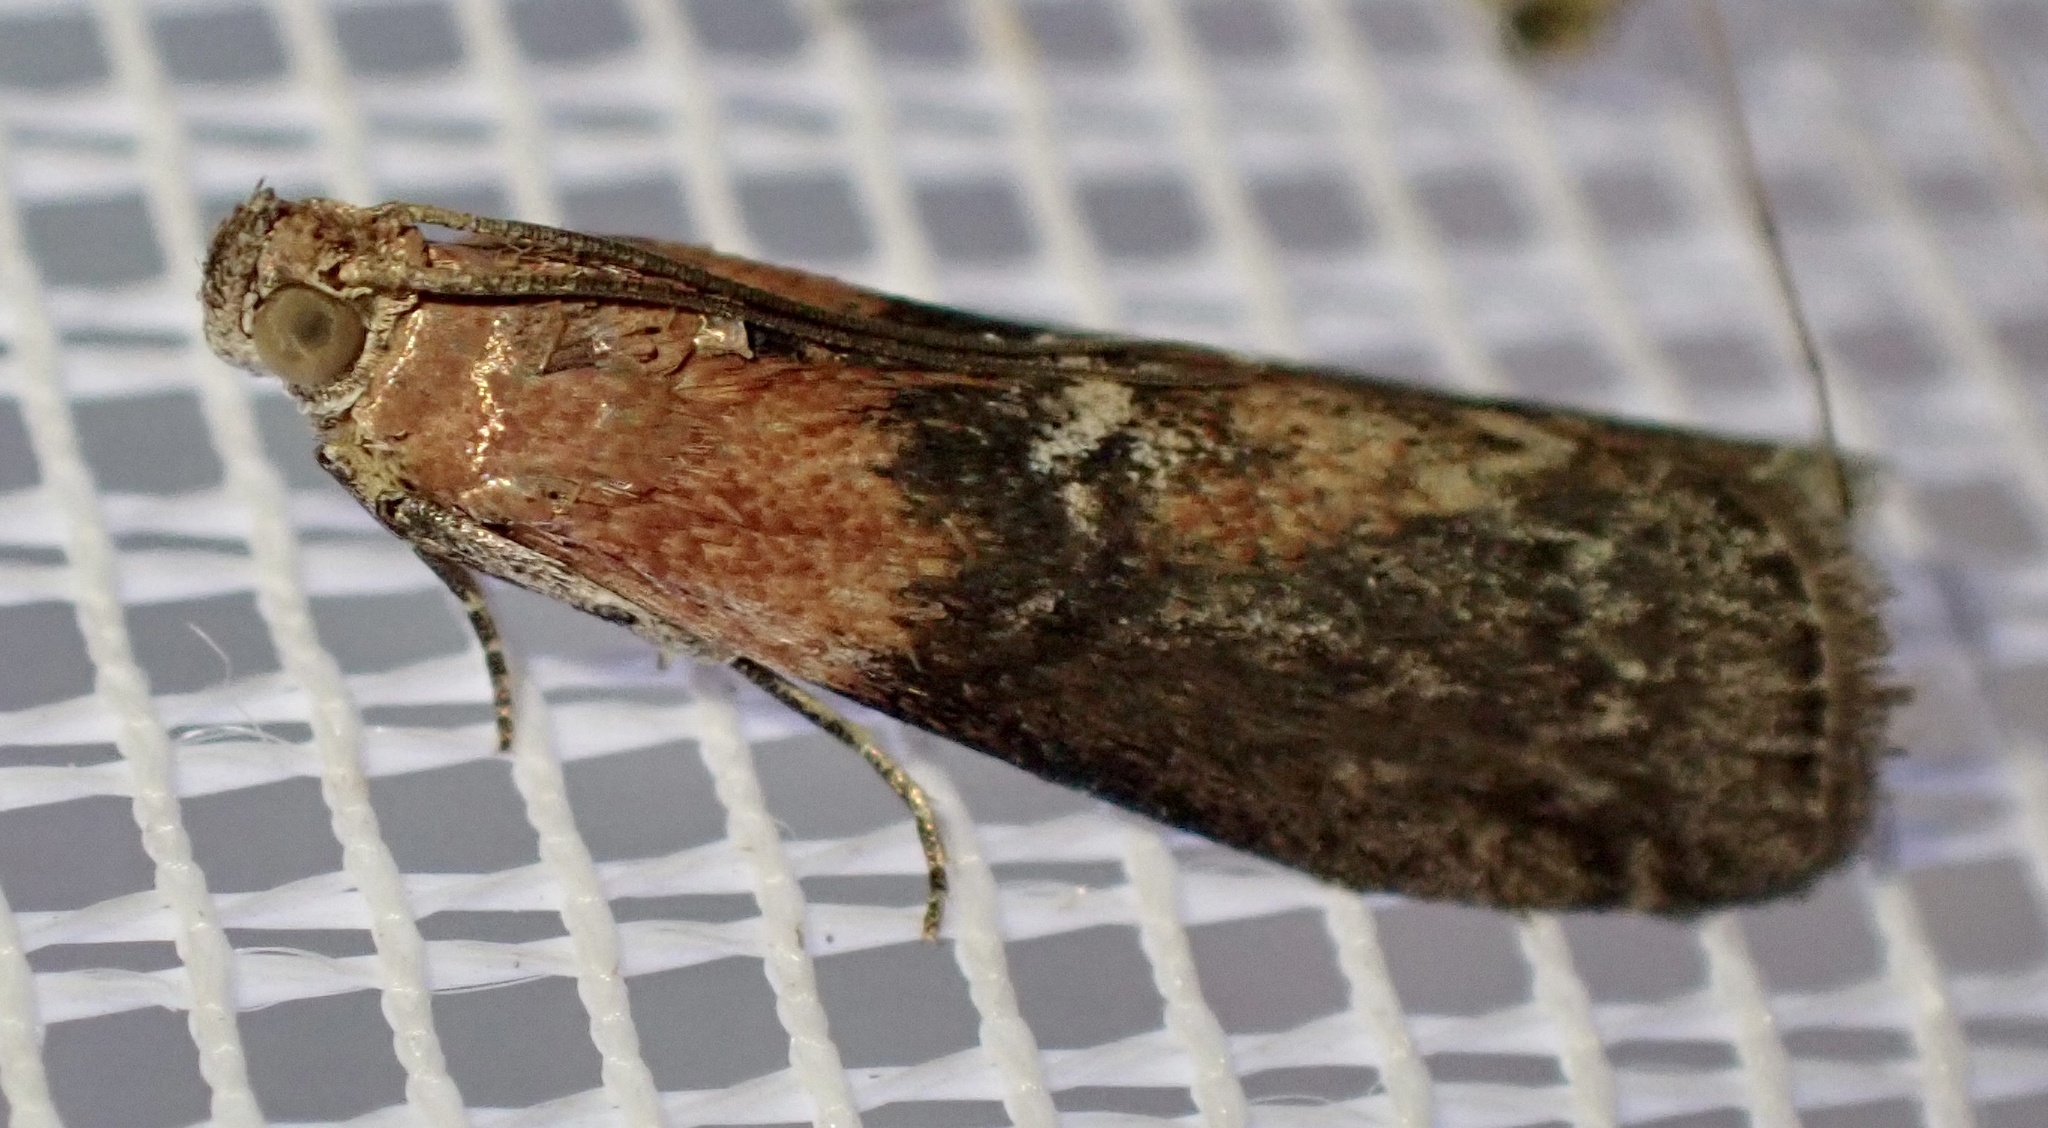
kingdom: Animalia
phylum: Arthropoda
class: Insecta
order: Lepidoptera
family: Pyralidae
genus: Sciota
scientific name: Sciota adelphella
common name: Willow knot-horn
